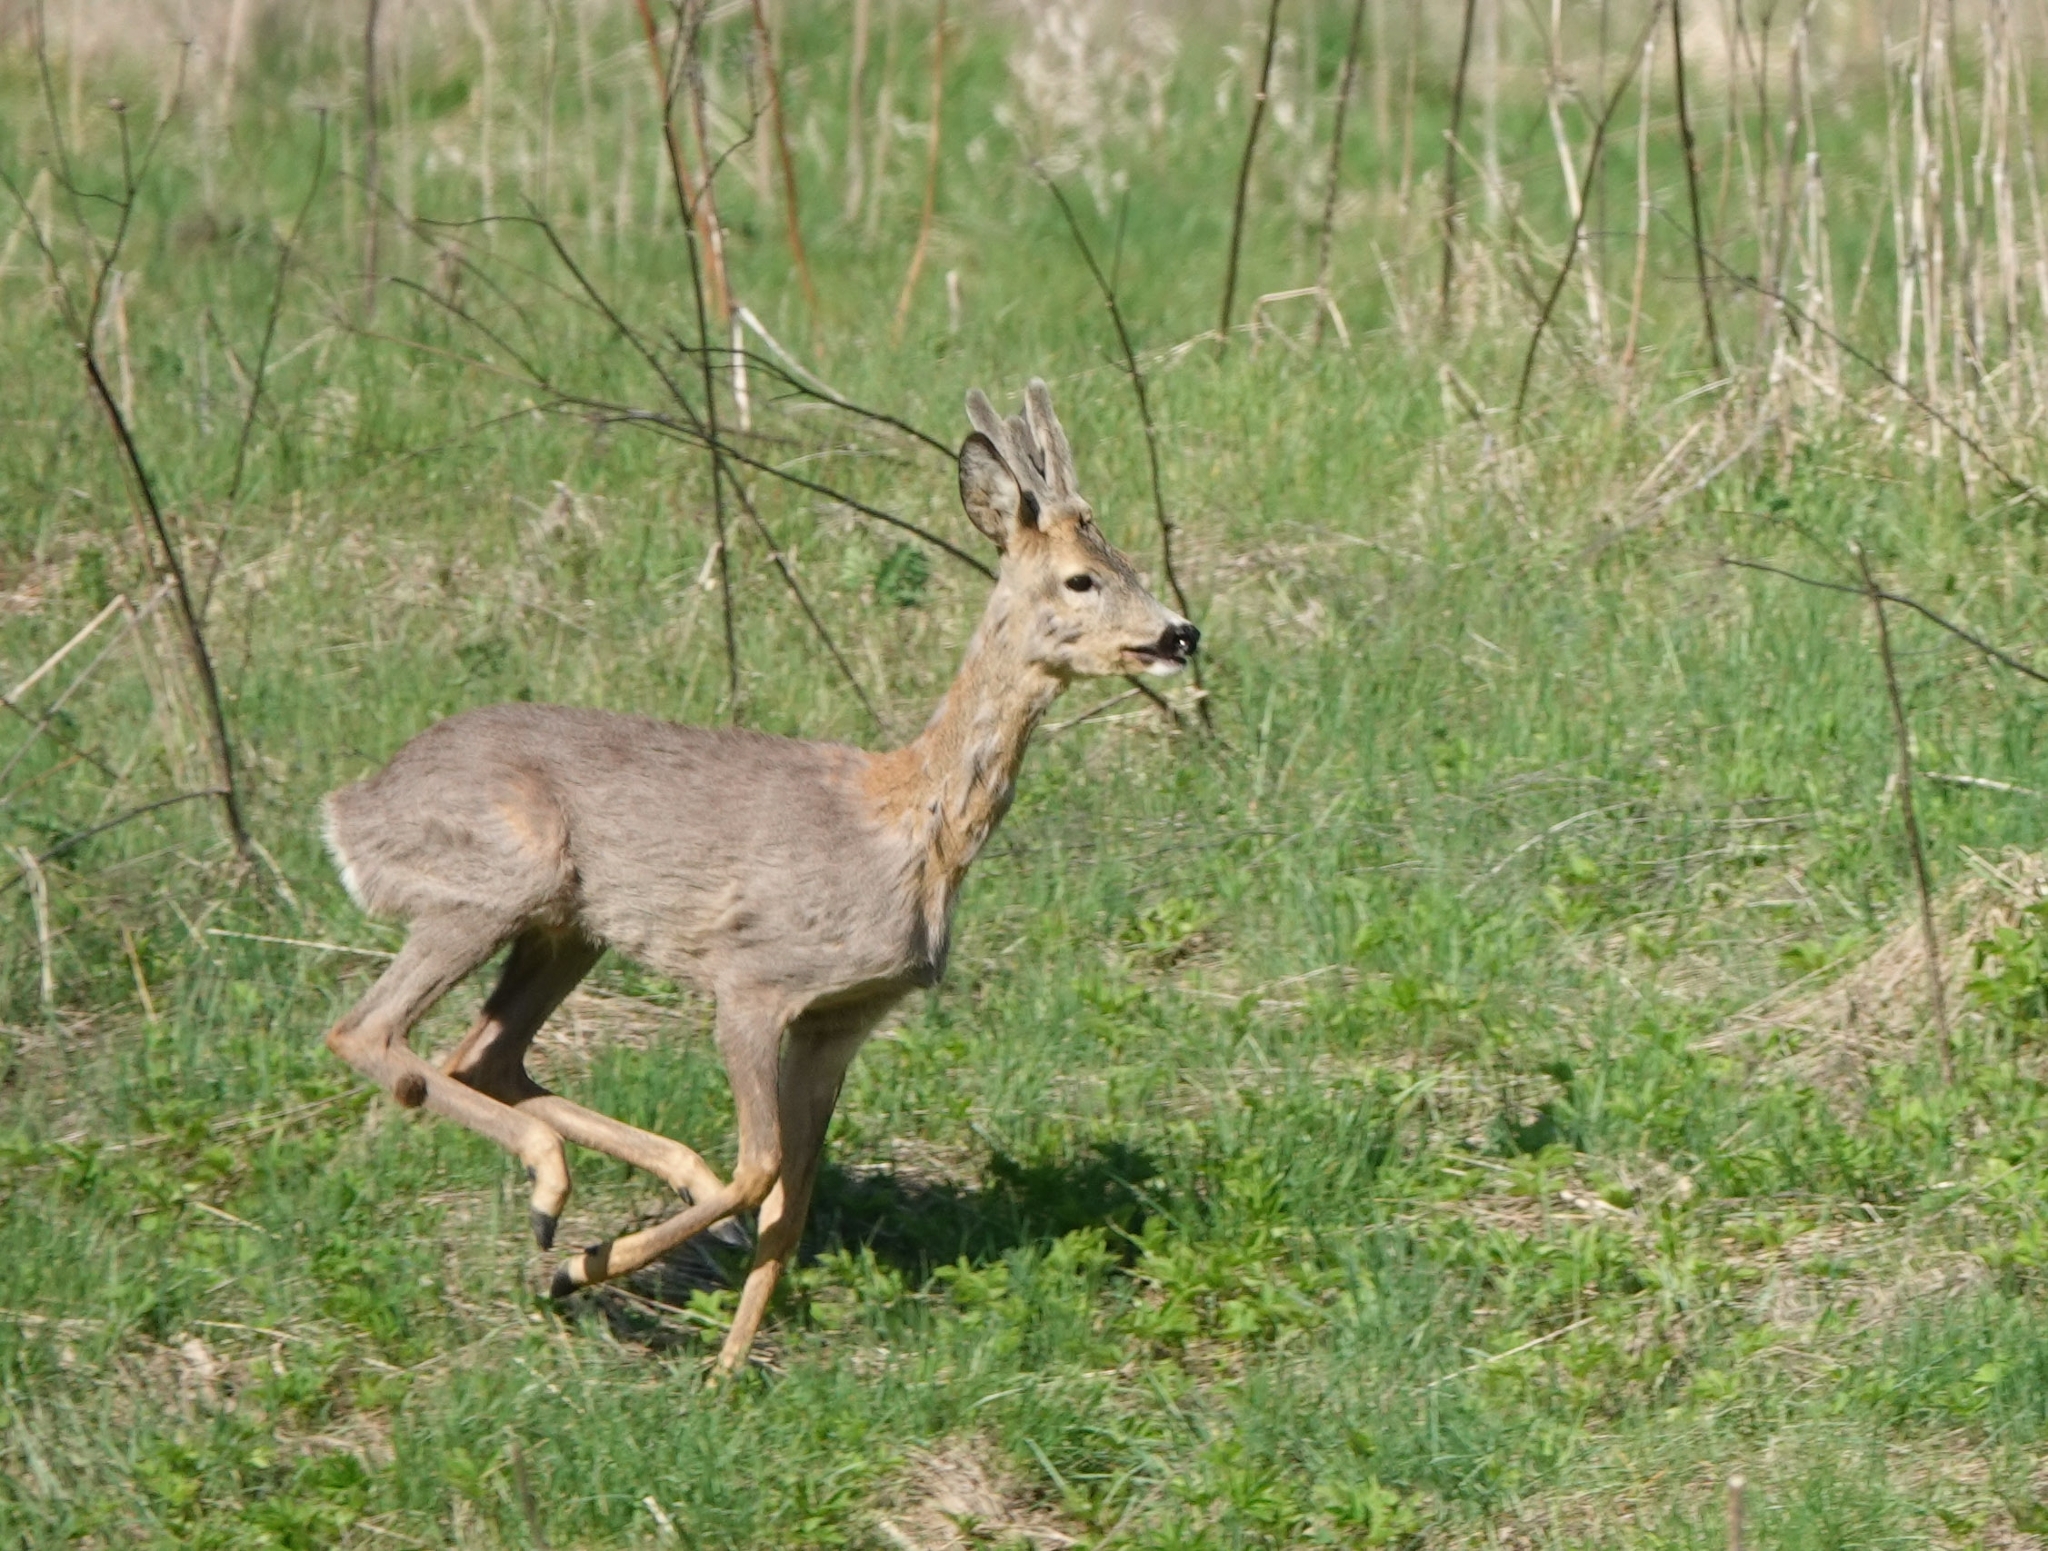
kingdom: Animalia
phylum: Chordata
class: Mammalia
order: Artiodactyla
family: Cervidae
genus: Capreolus
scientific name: Capreolus capreolus
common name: Western roe deer
